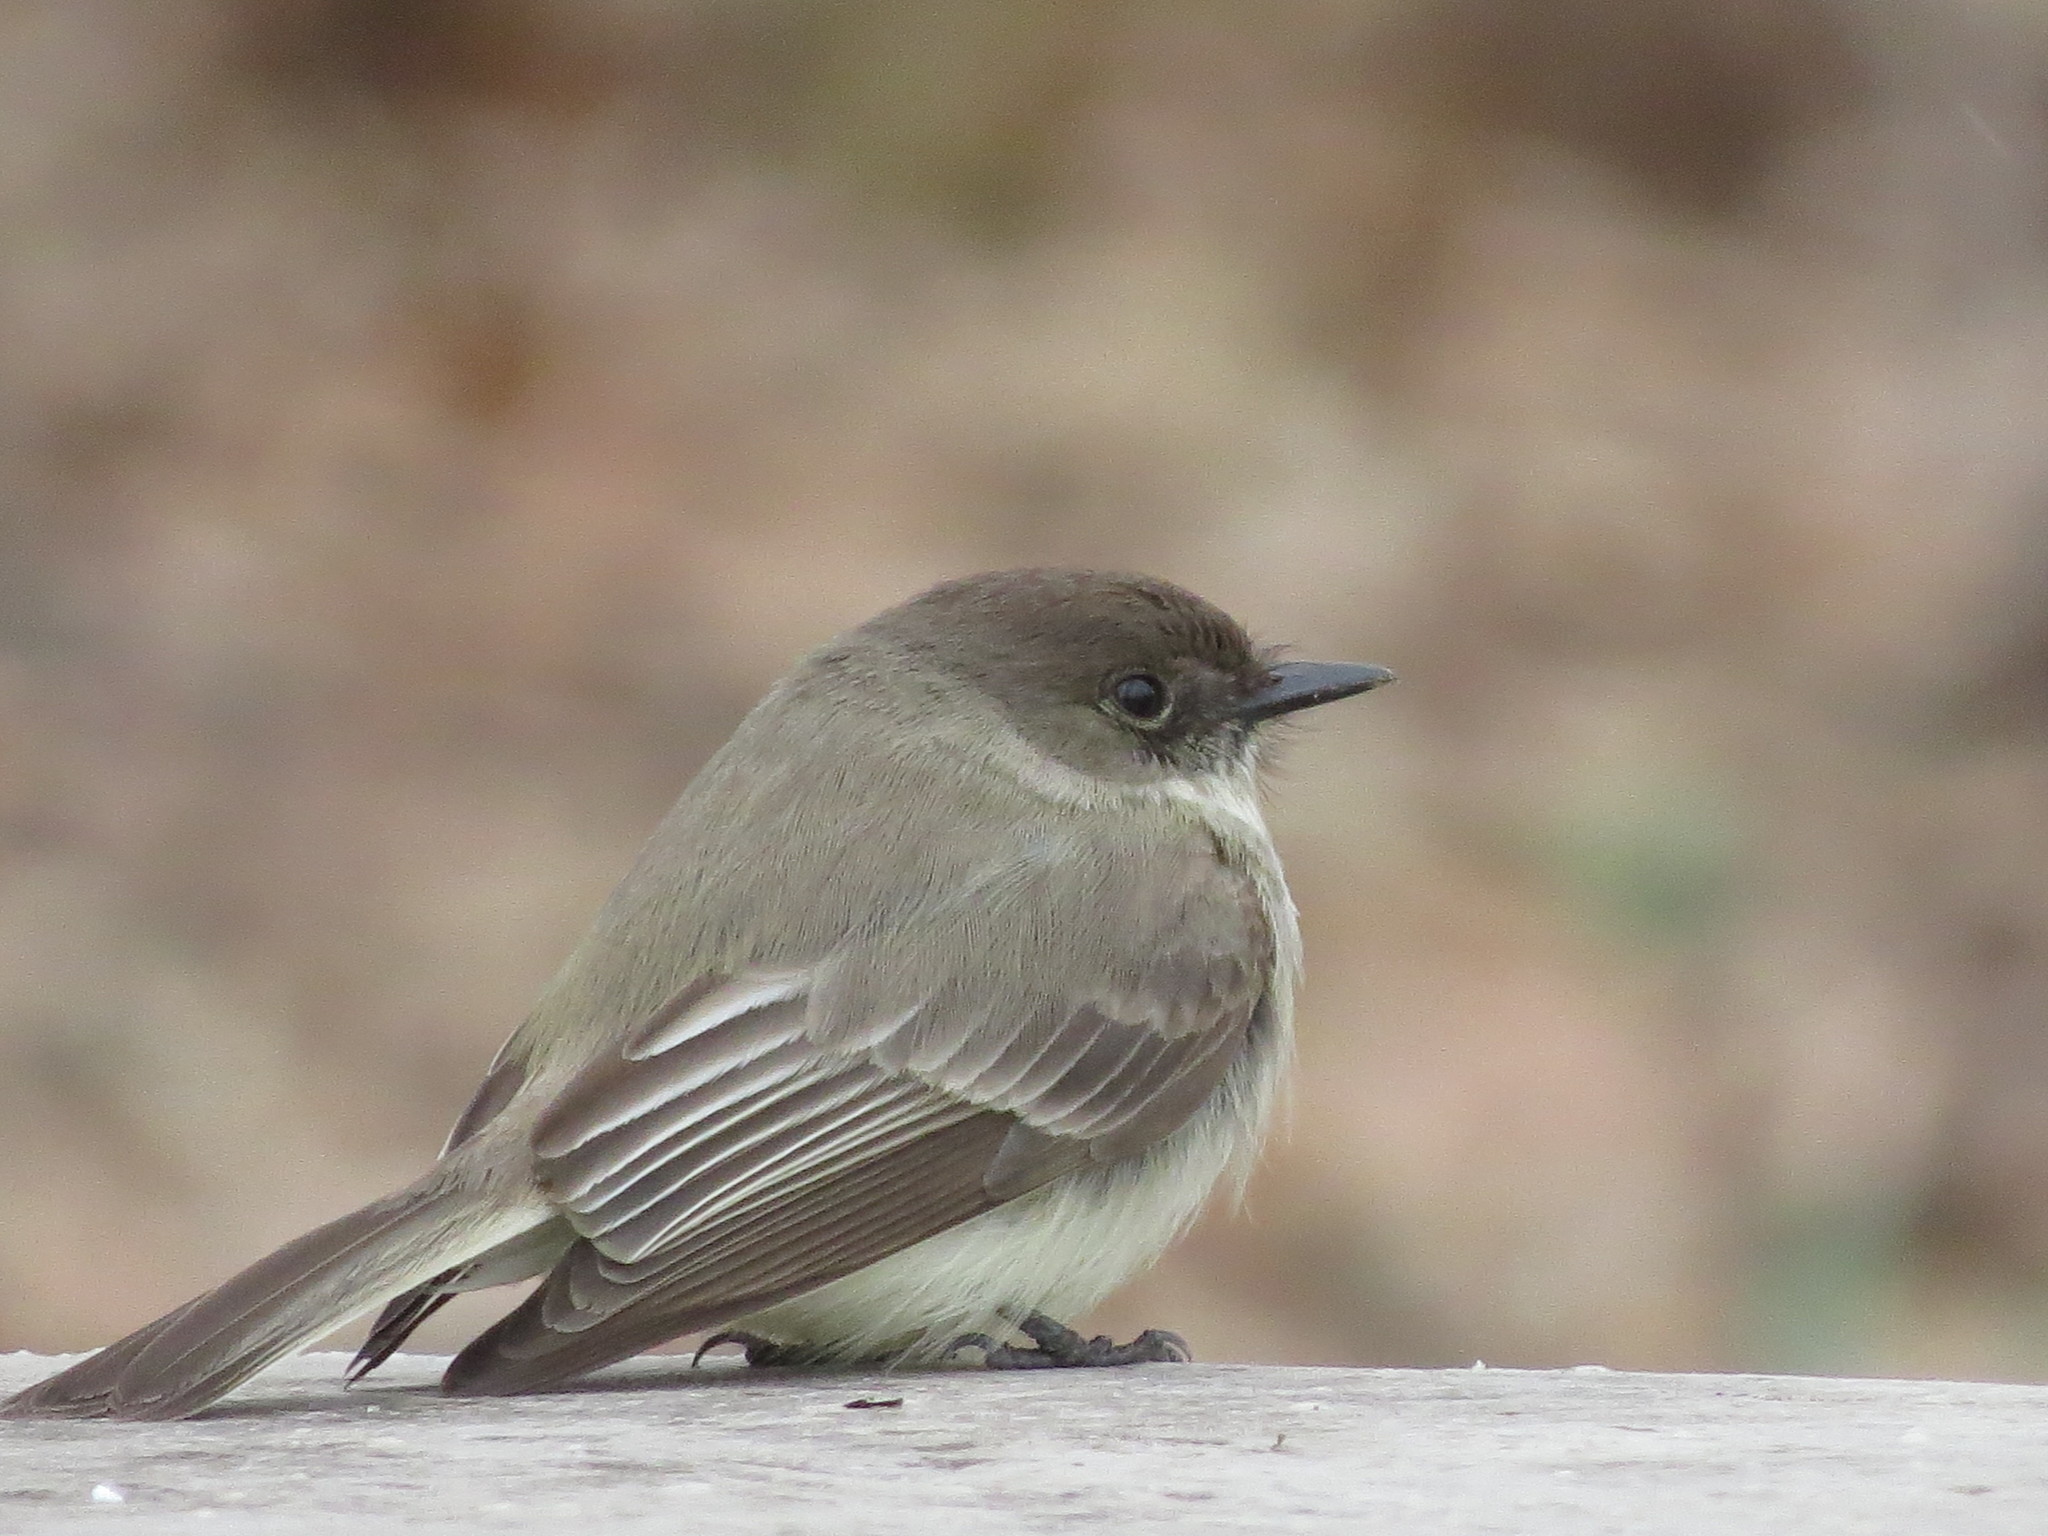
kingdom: Animalia
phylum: Chordata
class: Aves
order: Passeriformes
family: Tyrannidae
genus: Sayornis
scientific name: Sayornis phoebe
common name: Eastern phoebe
